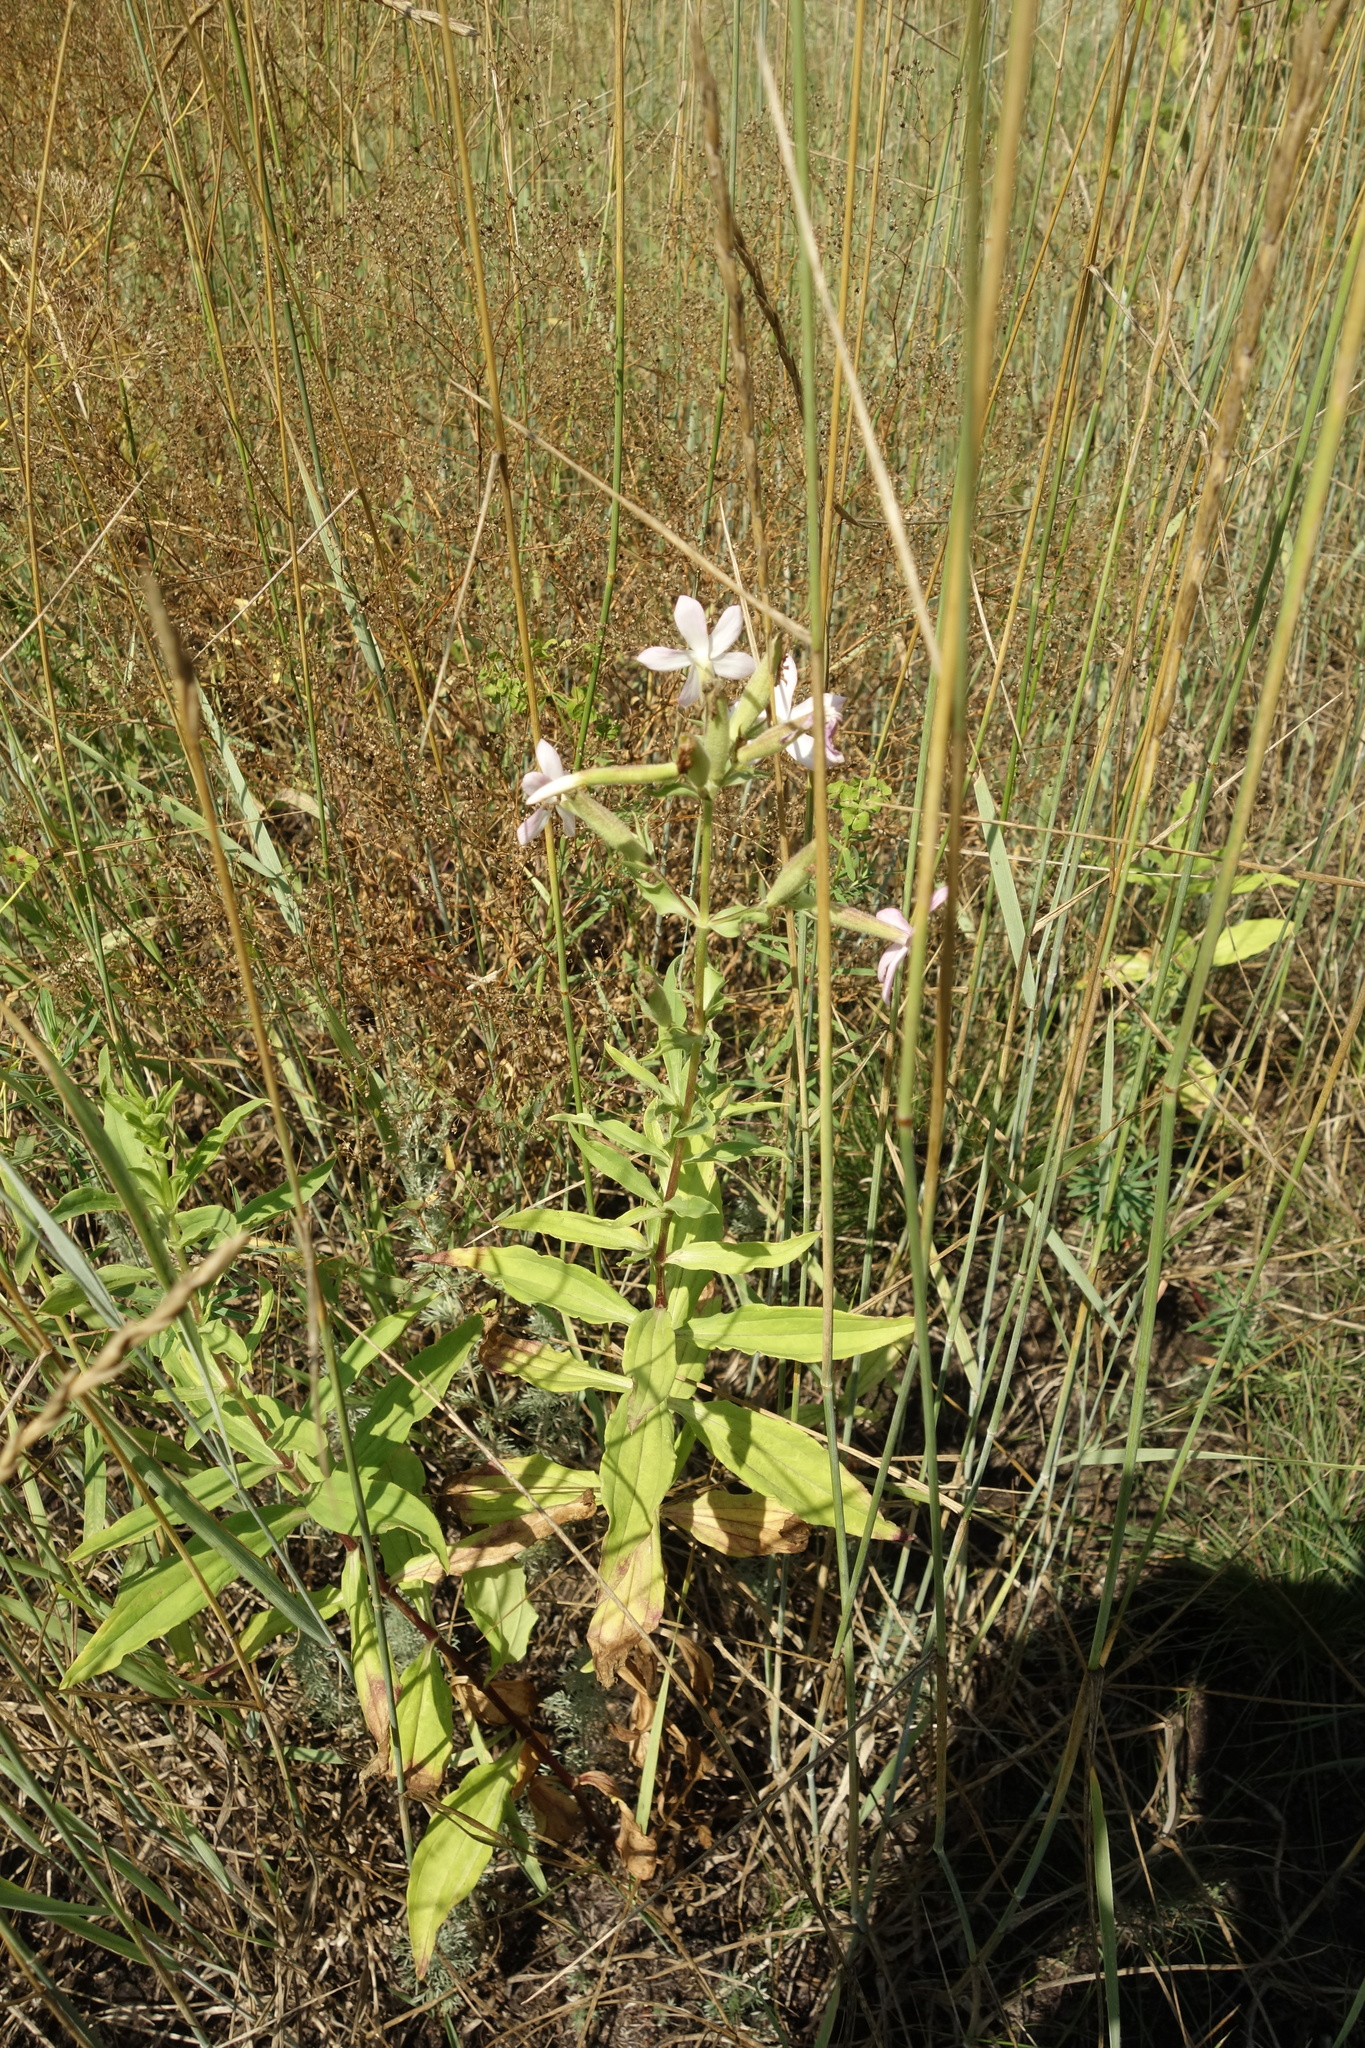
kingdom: Plantae
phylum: Tracheophyta
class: Magnoliopsida
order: Caryophyllales
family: Caryophyllaceae
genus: Saponaria
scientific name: Saponaria officinalis
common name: Soapwort
